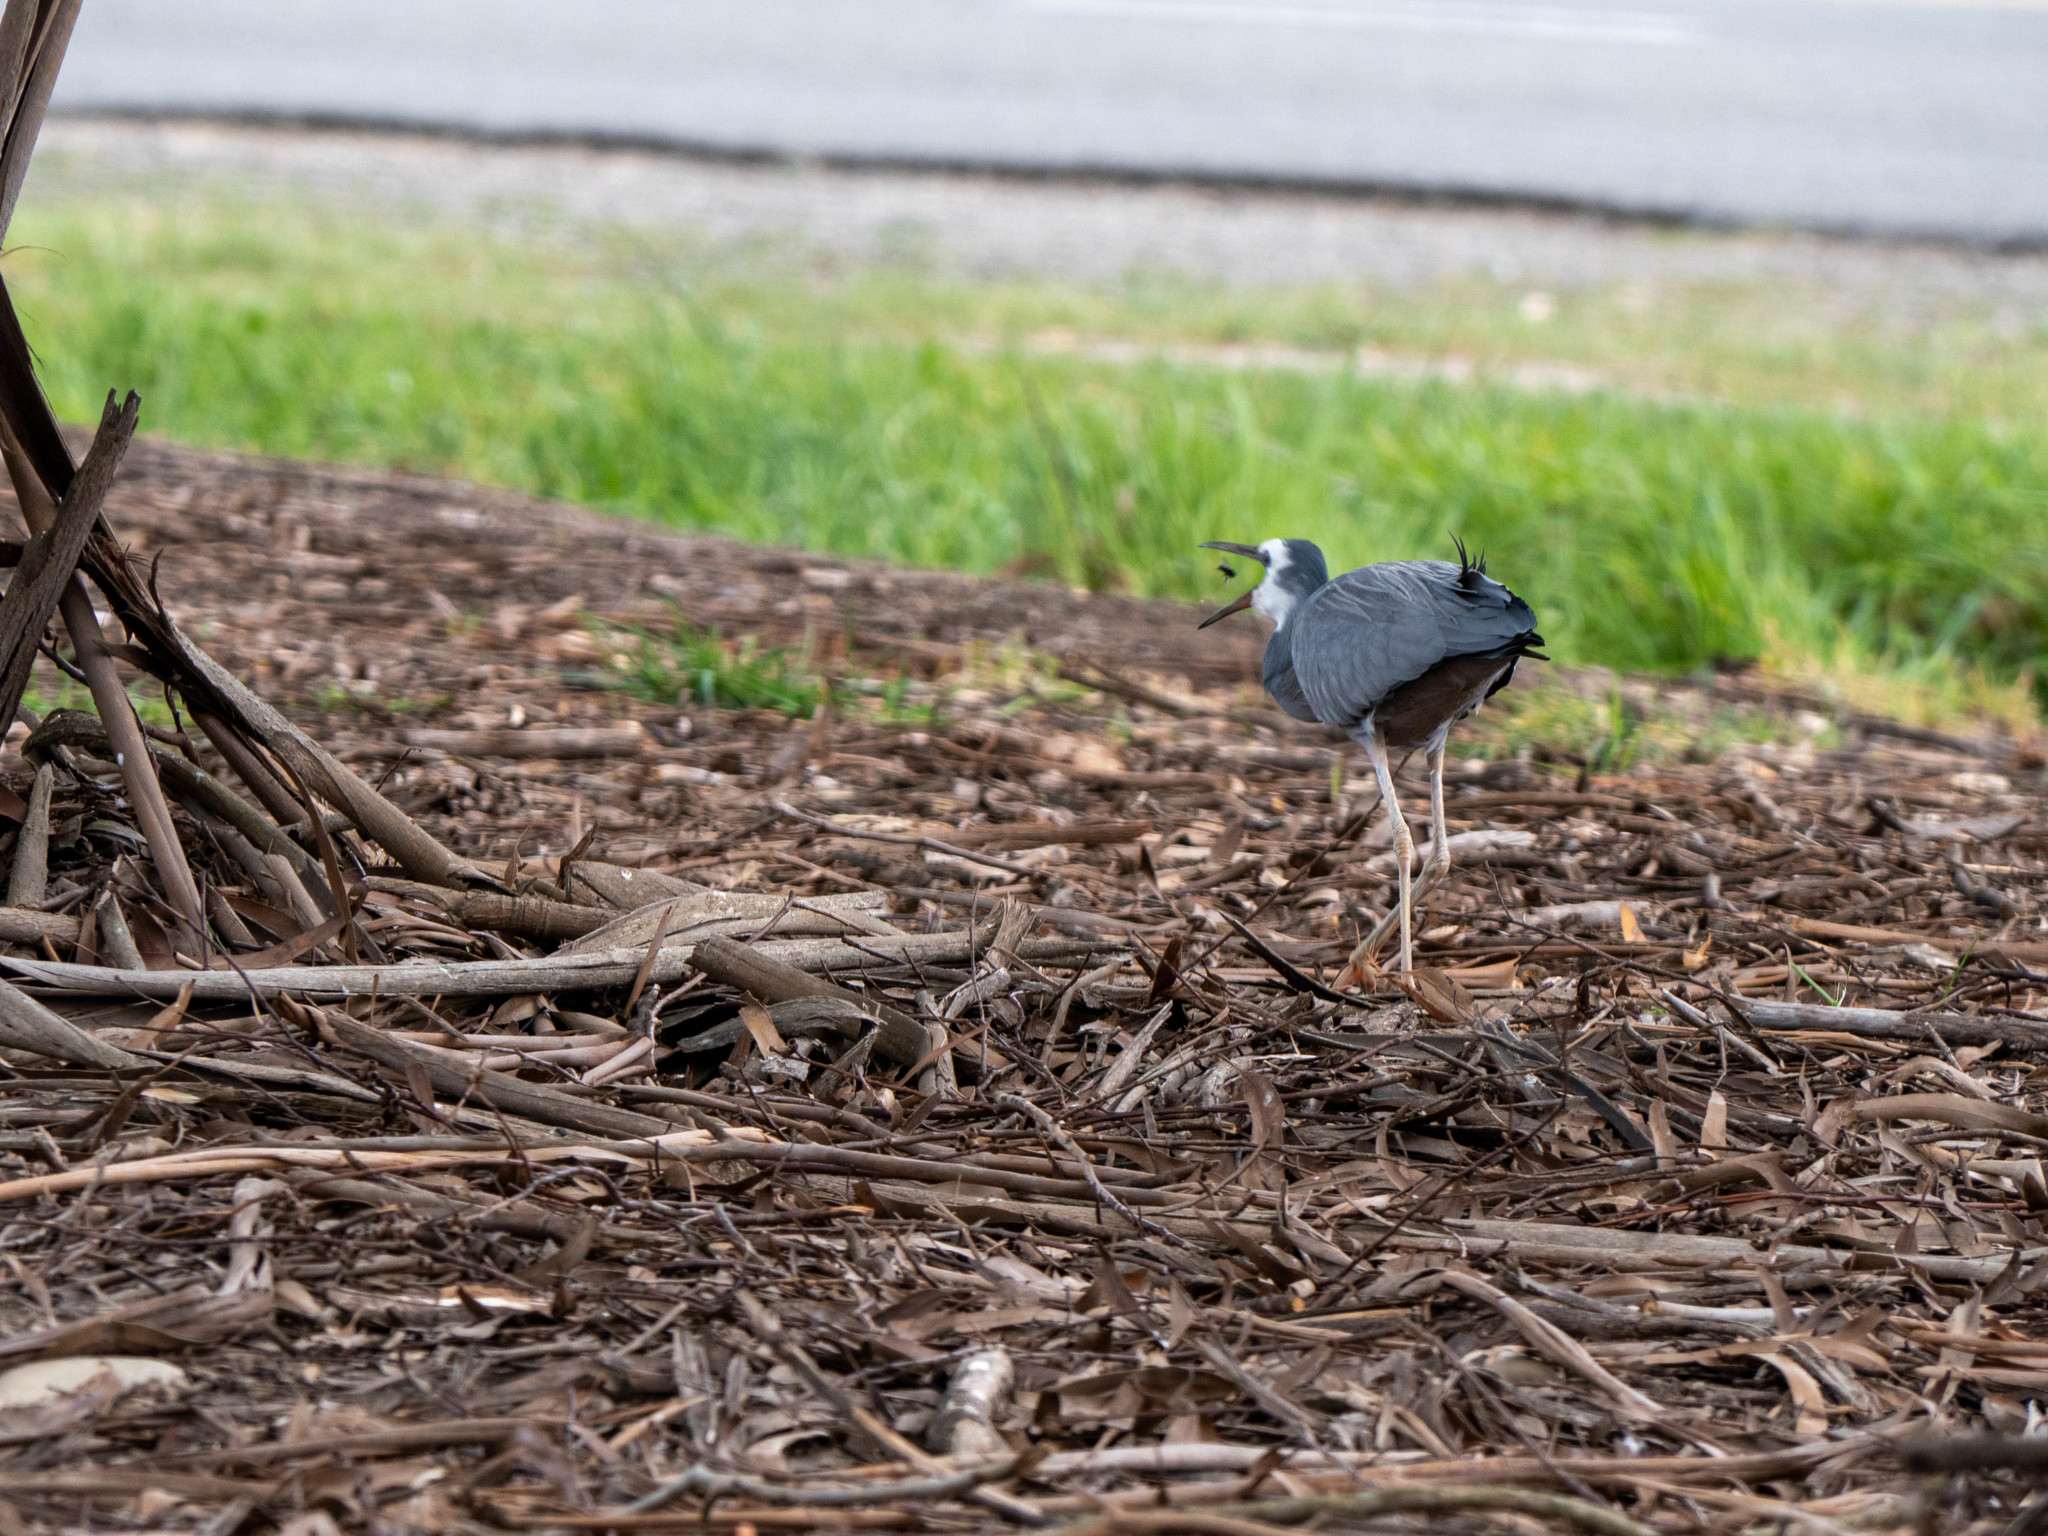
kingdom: Animalia
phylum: Chordata
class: Aves
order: Pelecaniformes
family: Ardeidae
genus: Egretta
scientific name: Egretta novaehollandiae
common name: White-faced heron
